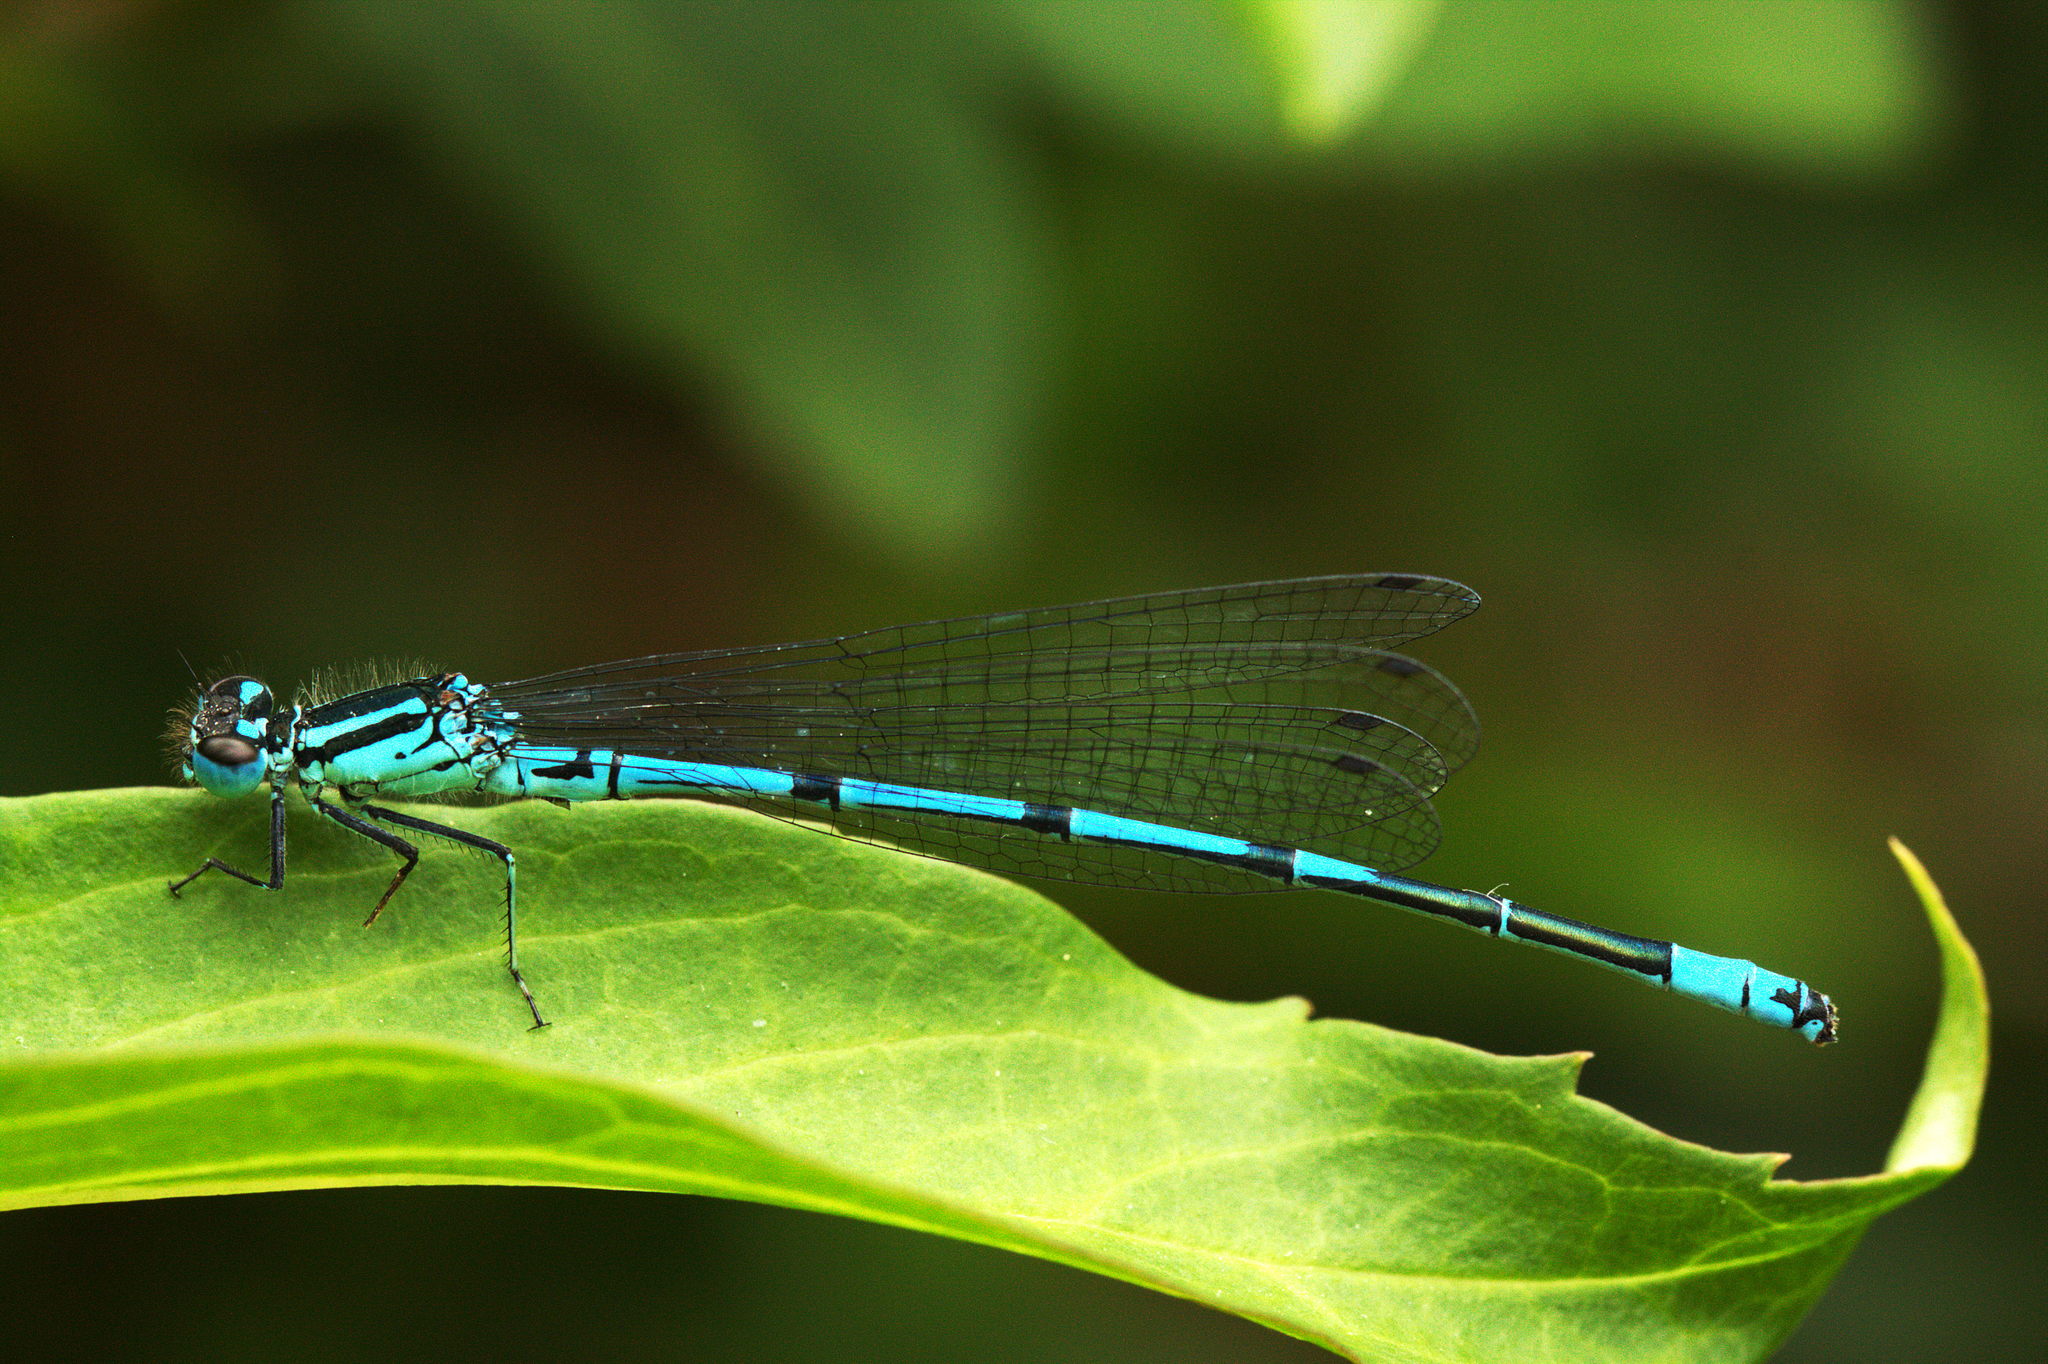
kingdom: Animalia
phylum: Arthropoda
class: Insecta
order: Odonata
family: Coenagrionidae
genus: Coenagrion
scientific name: Coenagrion puella
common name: Azure damselfly
